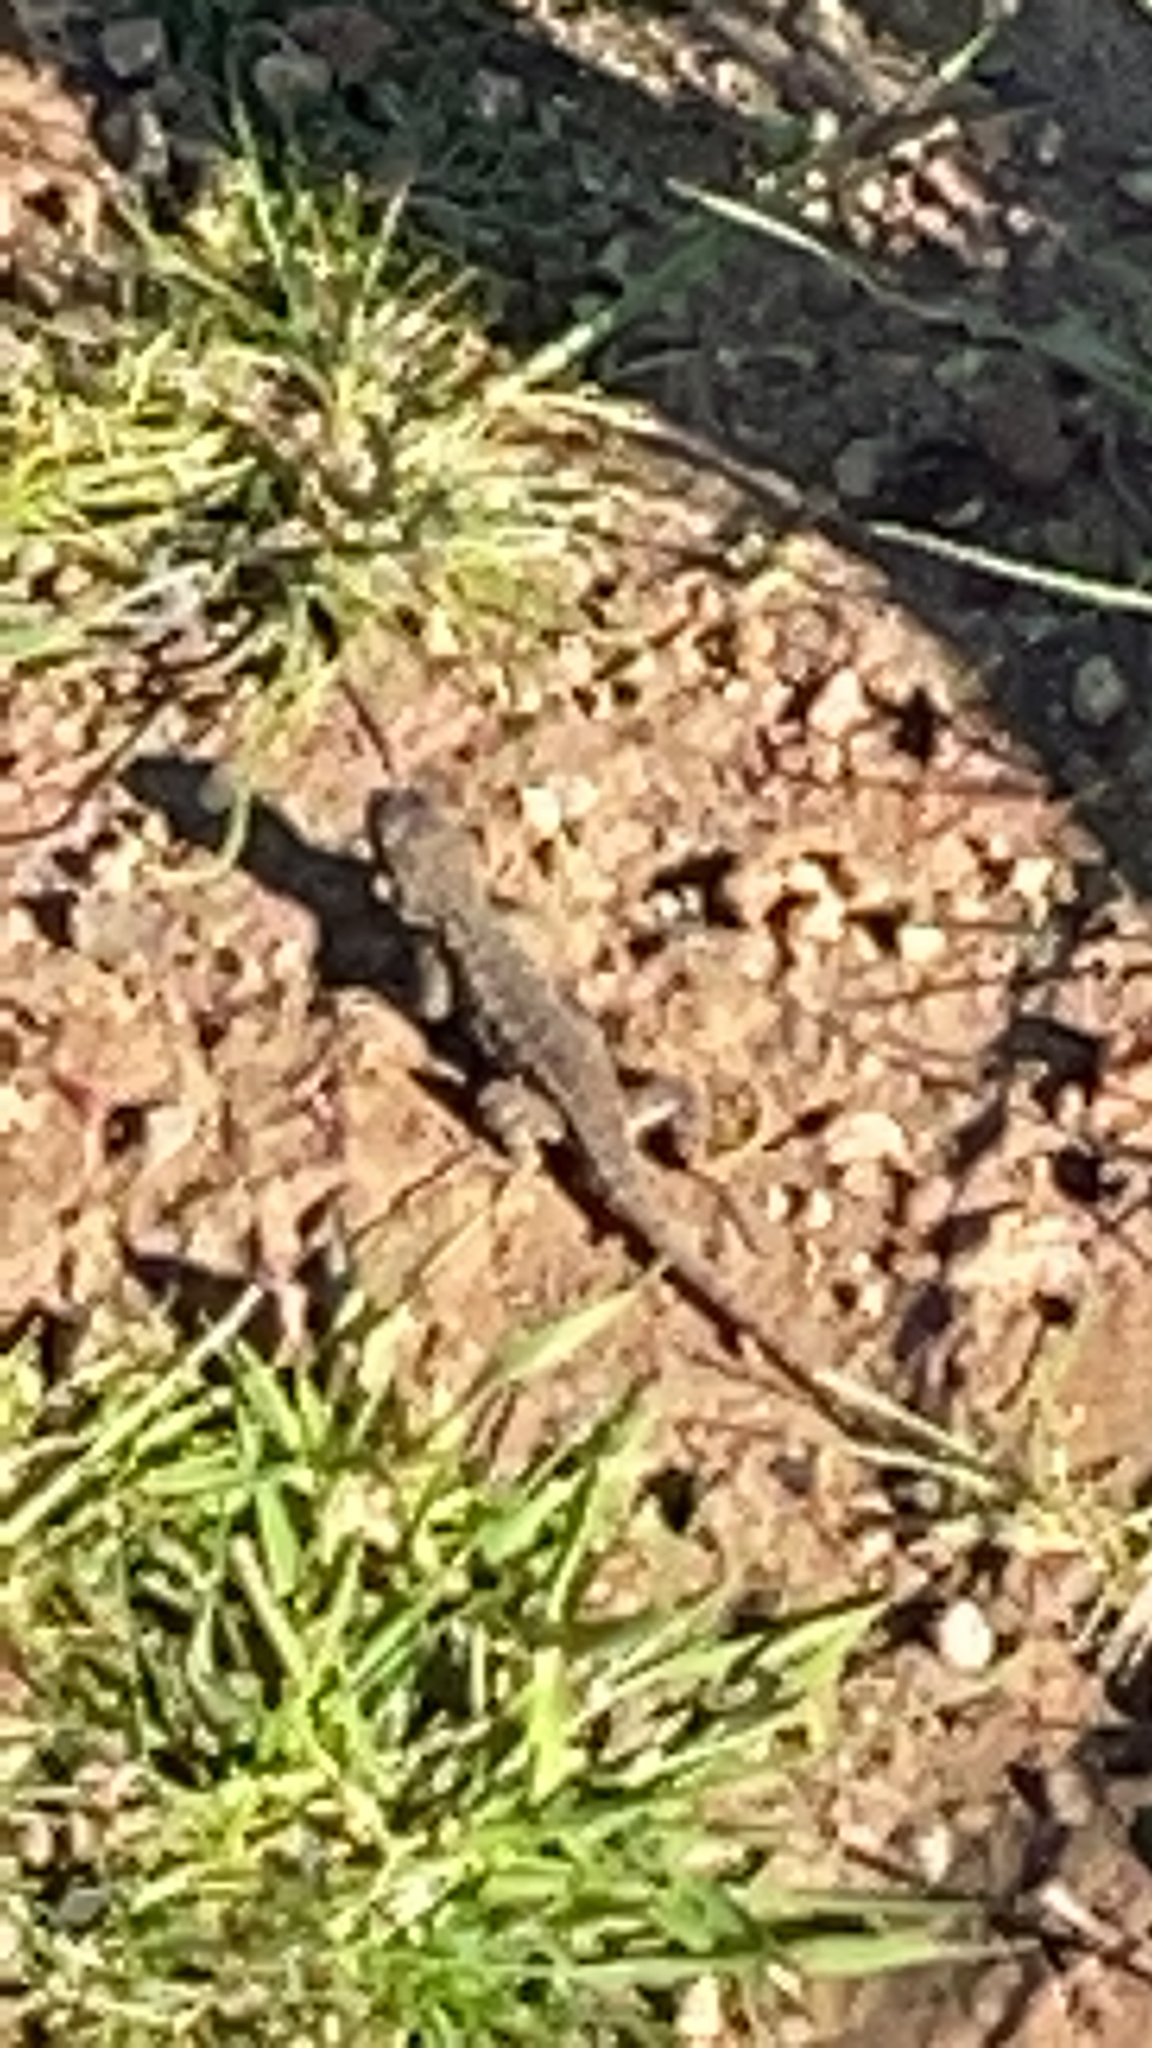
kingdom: Animalia
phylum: Chordata
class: Squamata
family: Phrynosomatidae
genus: Sceloporus
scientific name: Sceloporus occidentalis
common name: Western fence lizard
